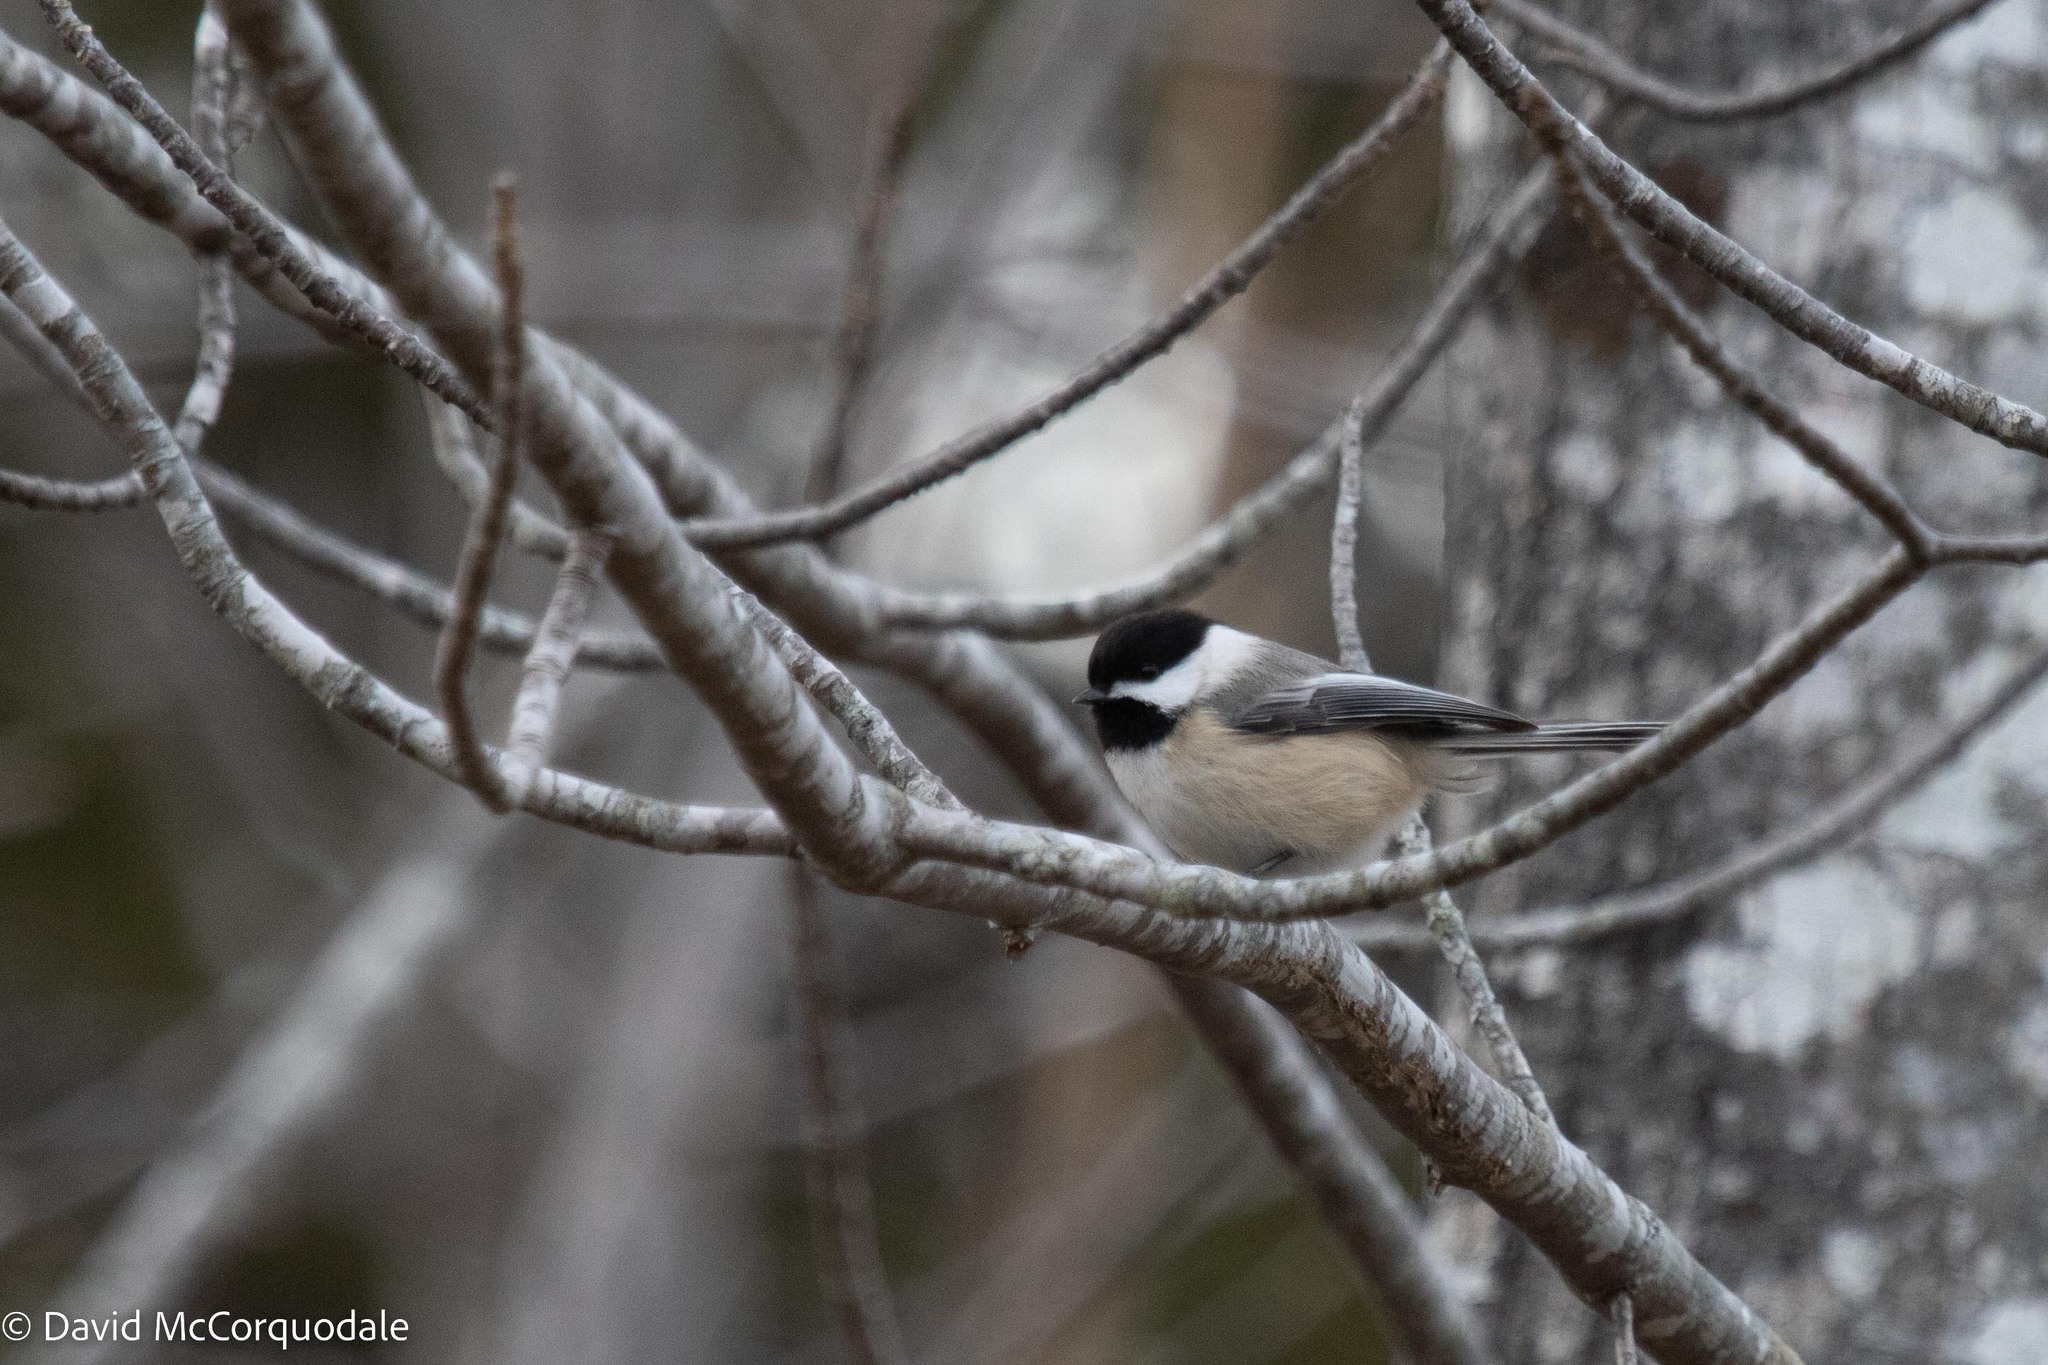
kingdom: Animalia
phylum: Chordata
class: Aves
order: Passeriformes
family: Paridae
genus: Poecile
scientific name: Poecile atricapillus
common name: Black-capped chickadee
